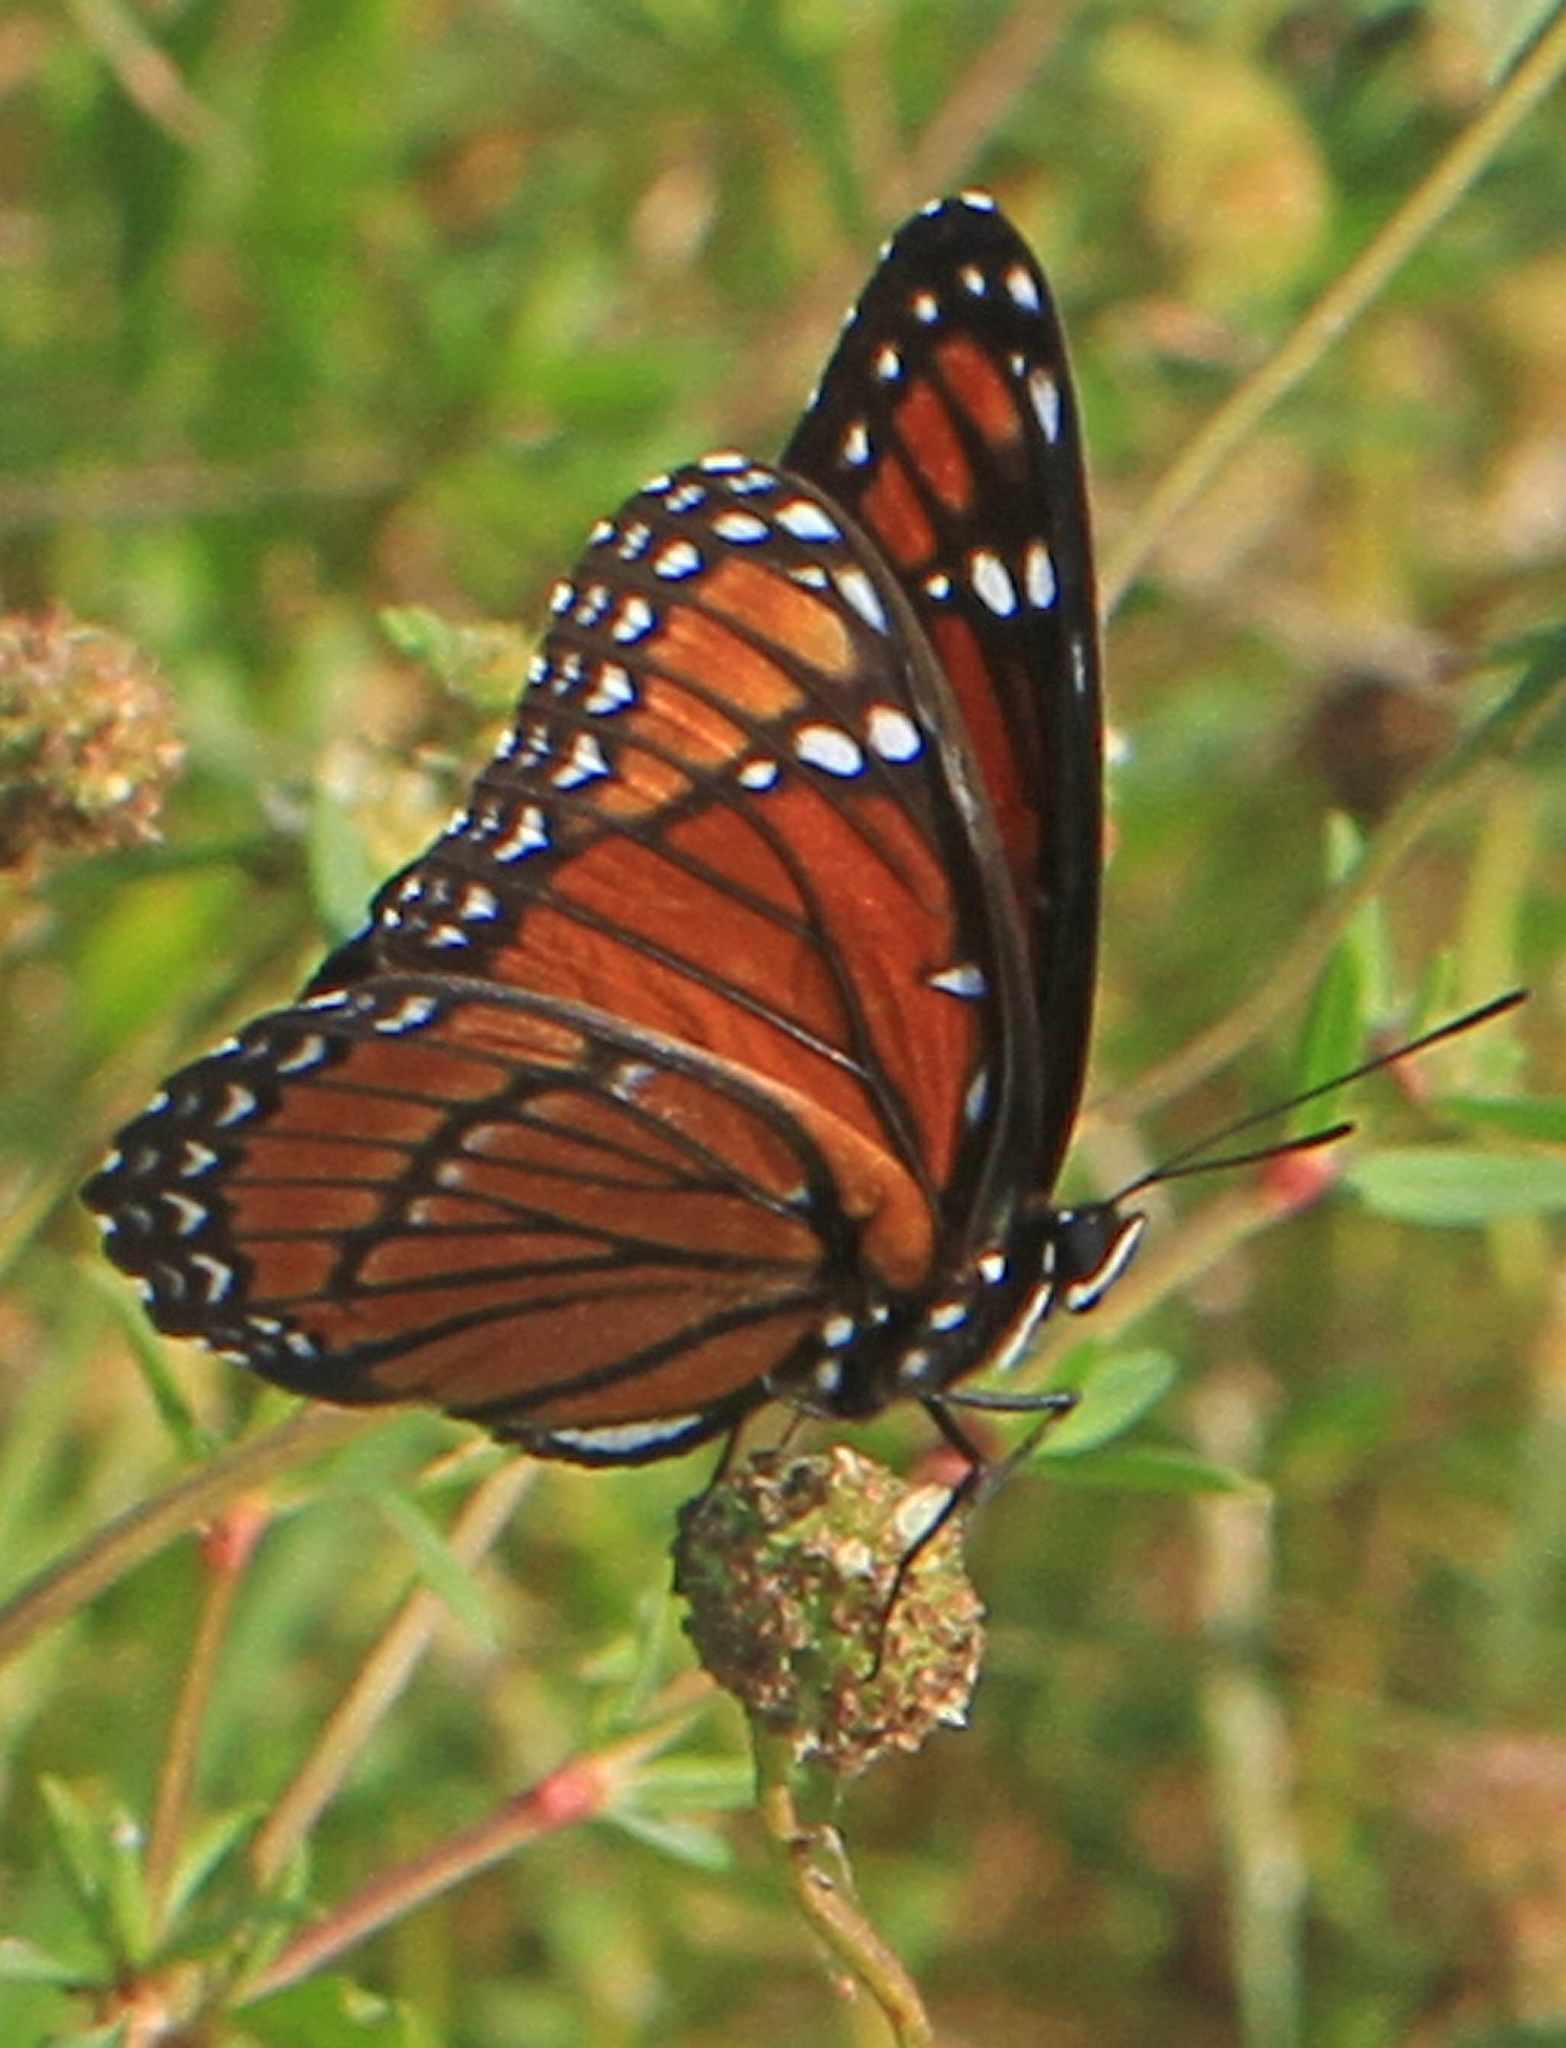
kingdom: Animalia
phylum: Arthropoda
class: Insecta
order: Lepidoptera
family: Nymphalidae
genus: Limenitis
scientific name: Limenitis archippus
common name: Viceroy
